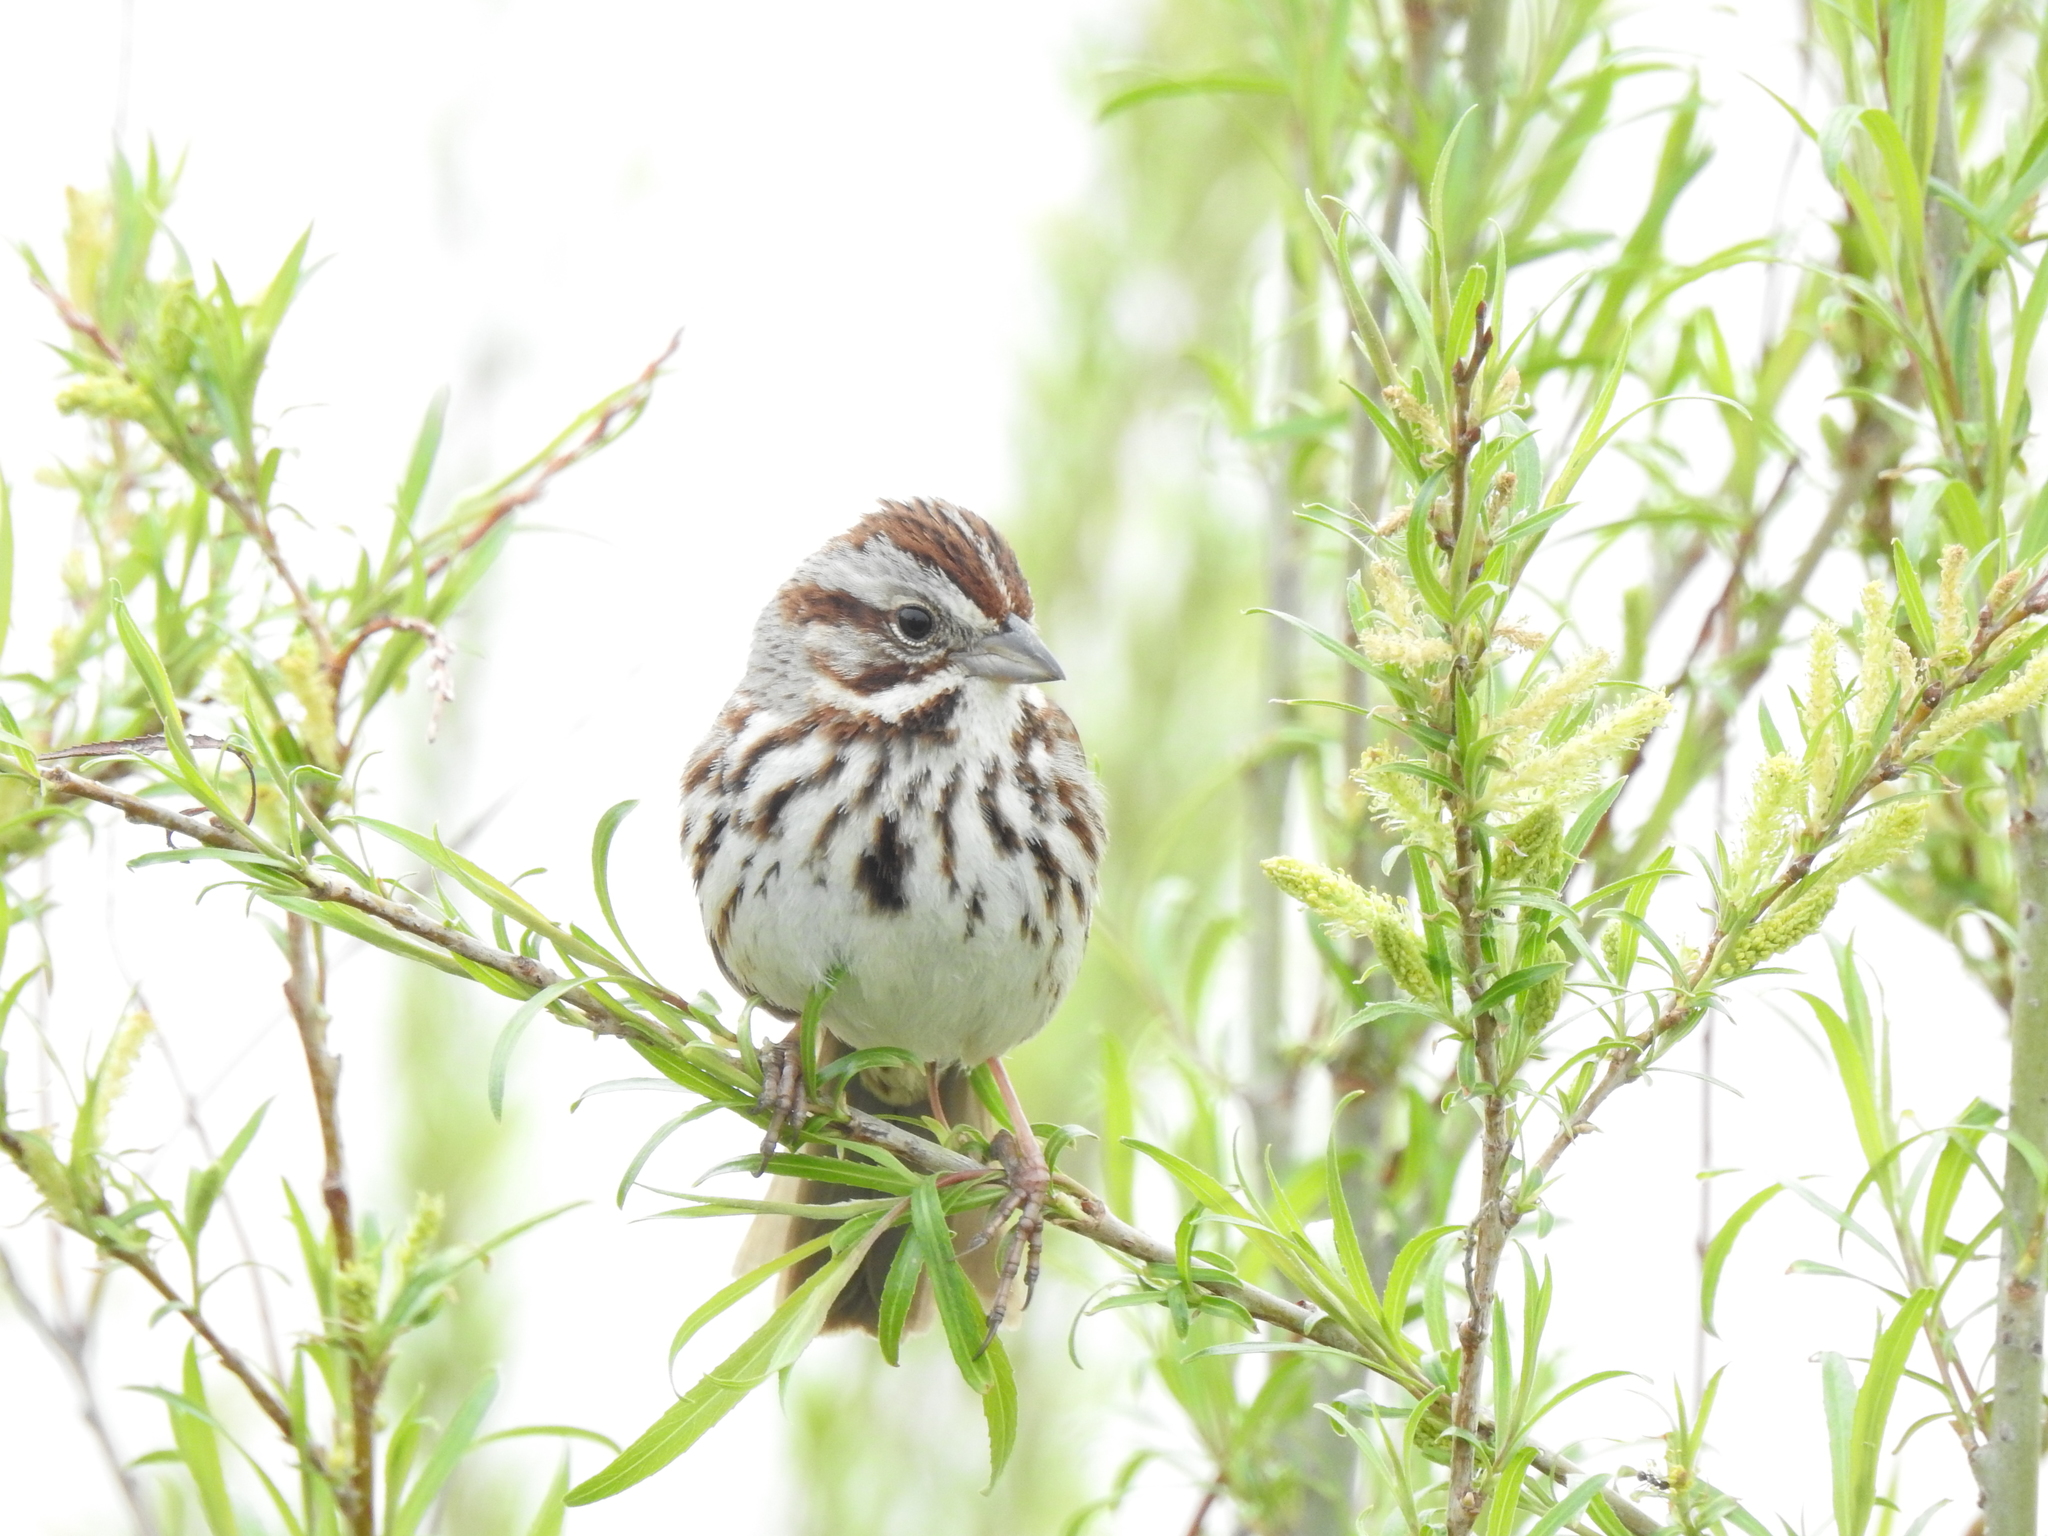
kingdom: Animalia
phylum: Chordata
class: Aves
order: Passeriformes
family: Passerellidae
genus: Melospiza
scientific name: Melospiza melodia
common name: Song sparrow
